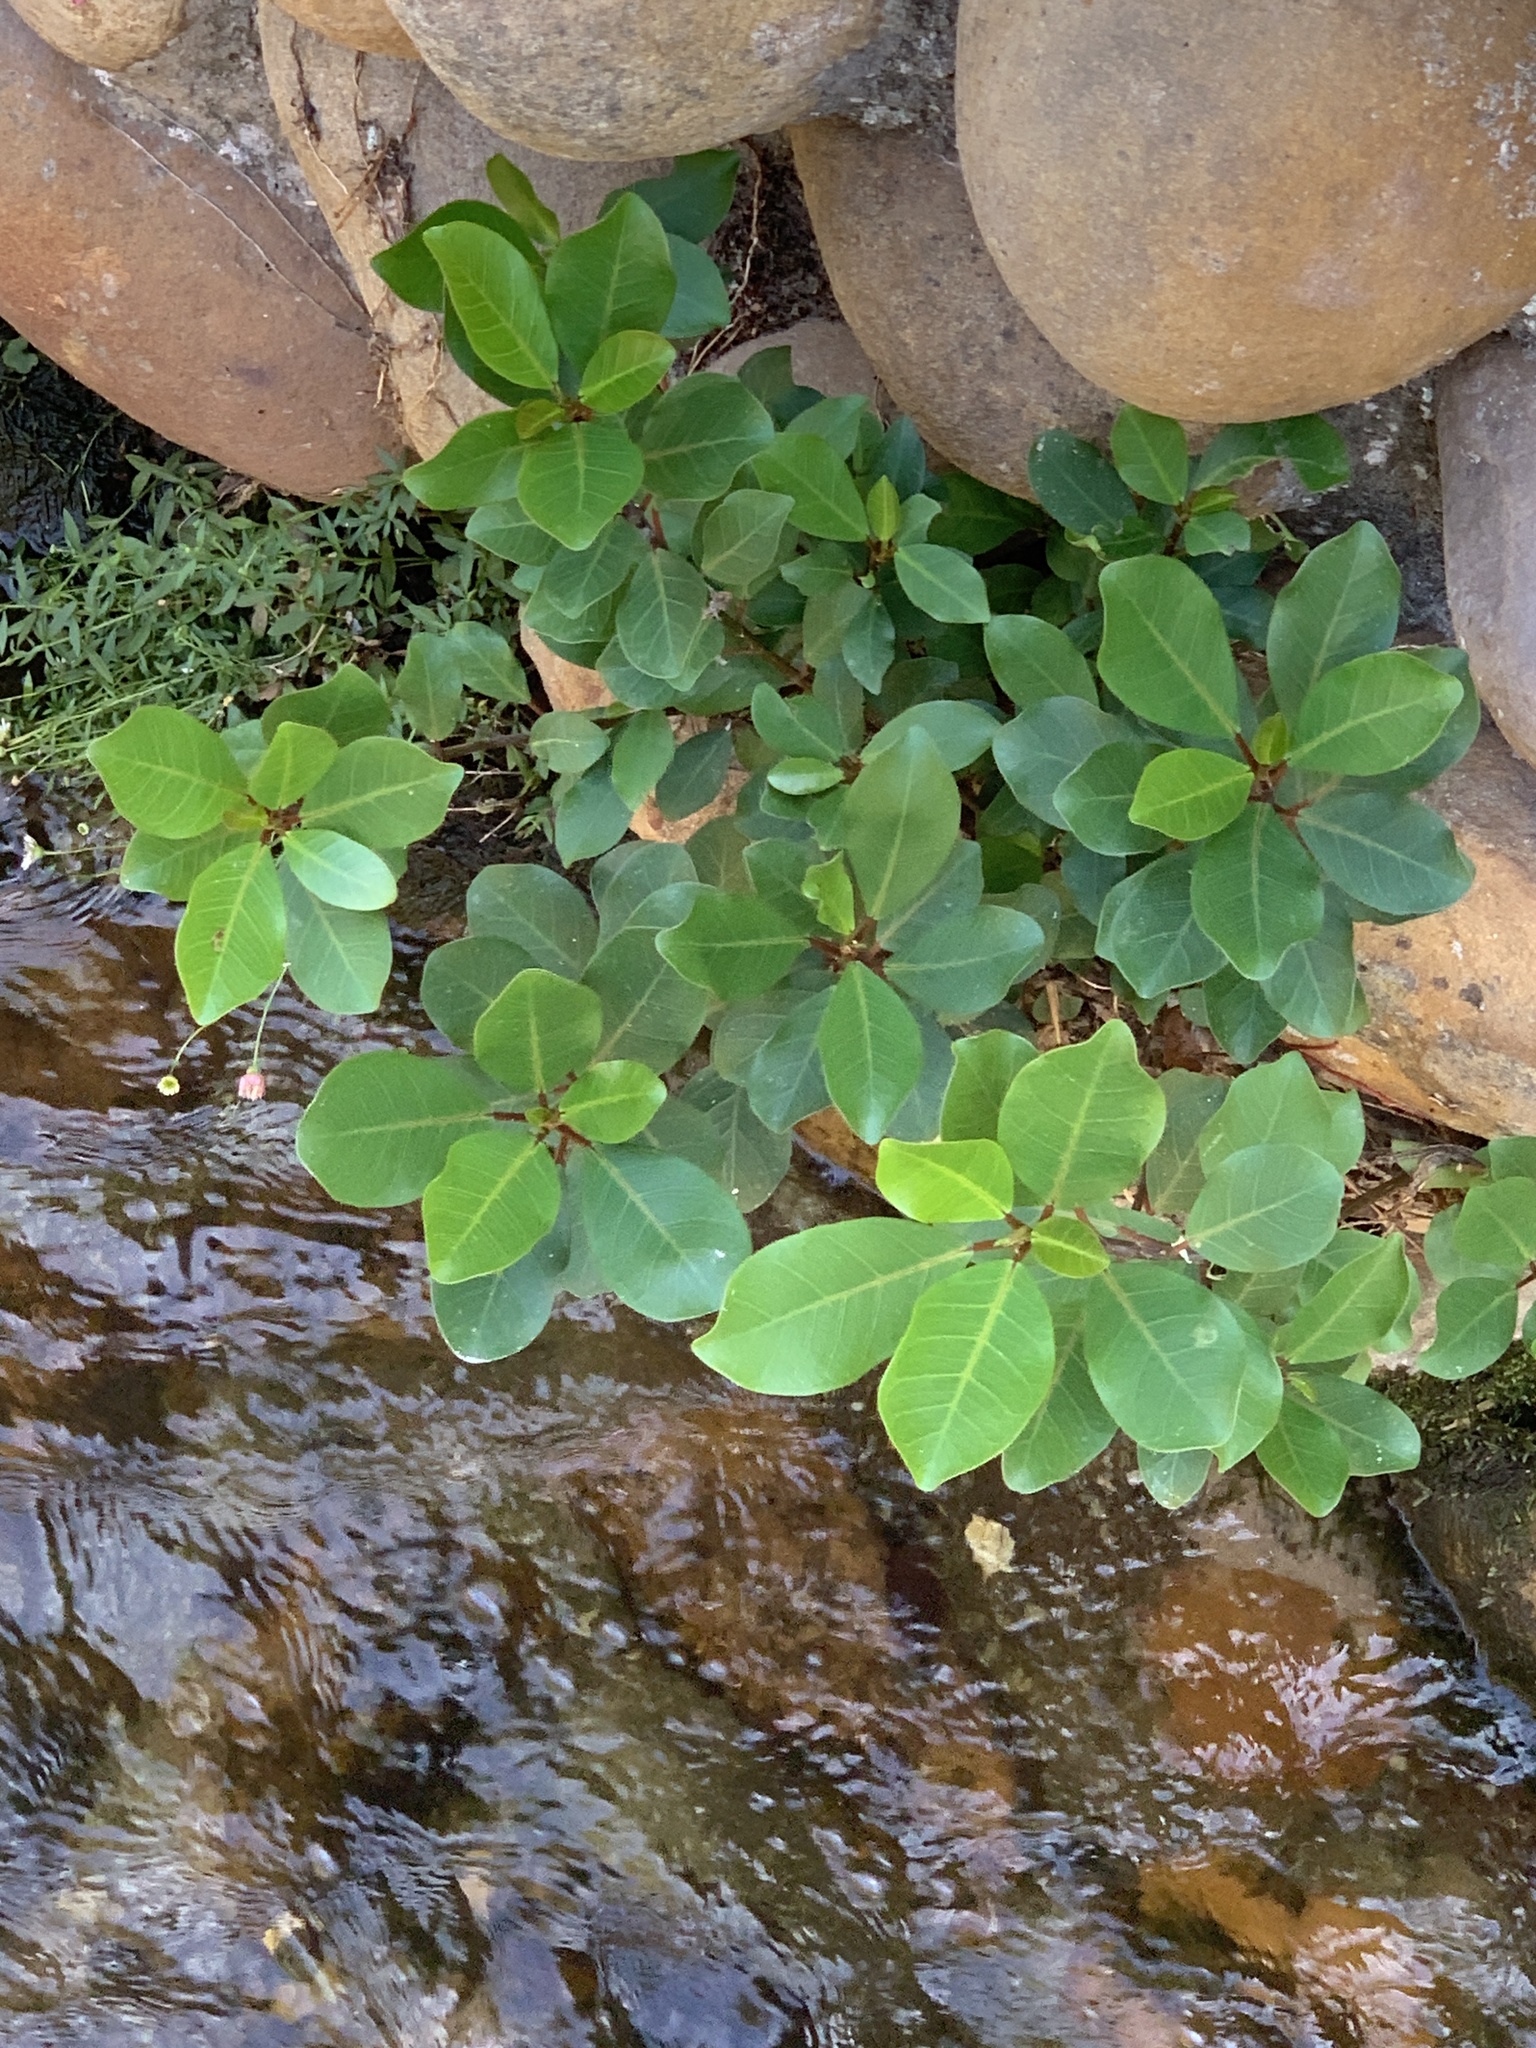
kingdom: Plantae
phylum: Tracheophyta
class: Magnoliopsida
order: Rosales
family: Moraceae
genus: Ficus
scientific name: Ficus thonningii
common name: Fig
